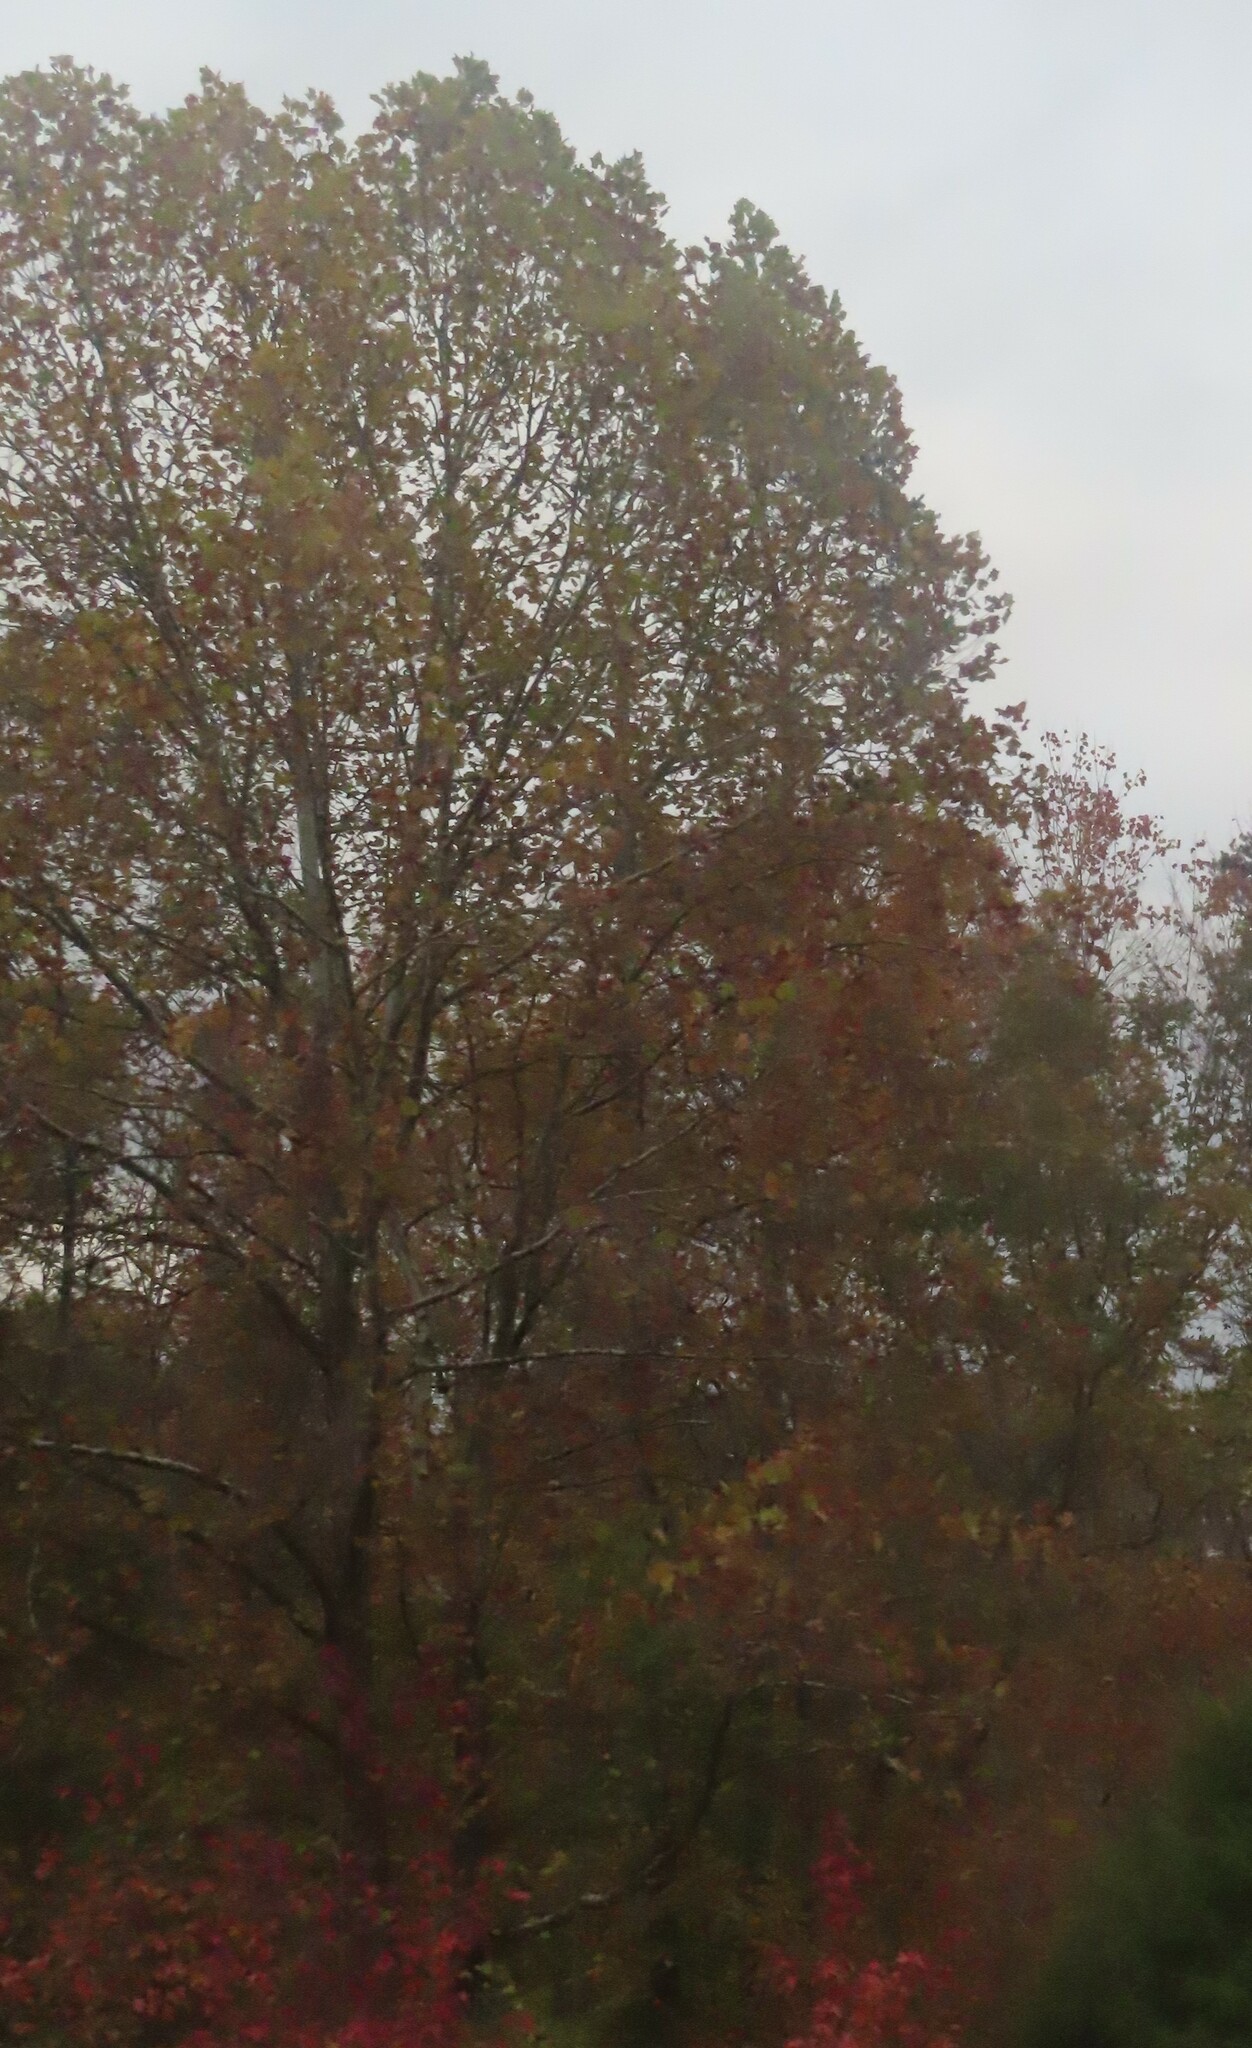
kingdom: Plantae
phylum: Tracheophyta
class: Magnoliopsida
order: Proteales
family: Platanaceae
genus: Platanus
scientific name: Platanus occidentalis
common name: American sycamore
